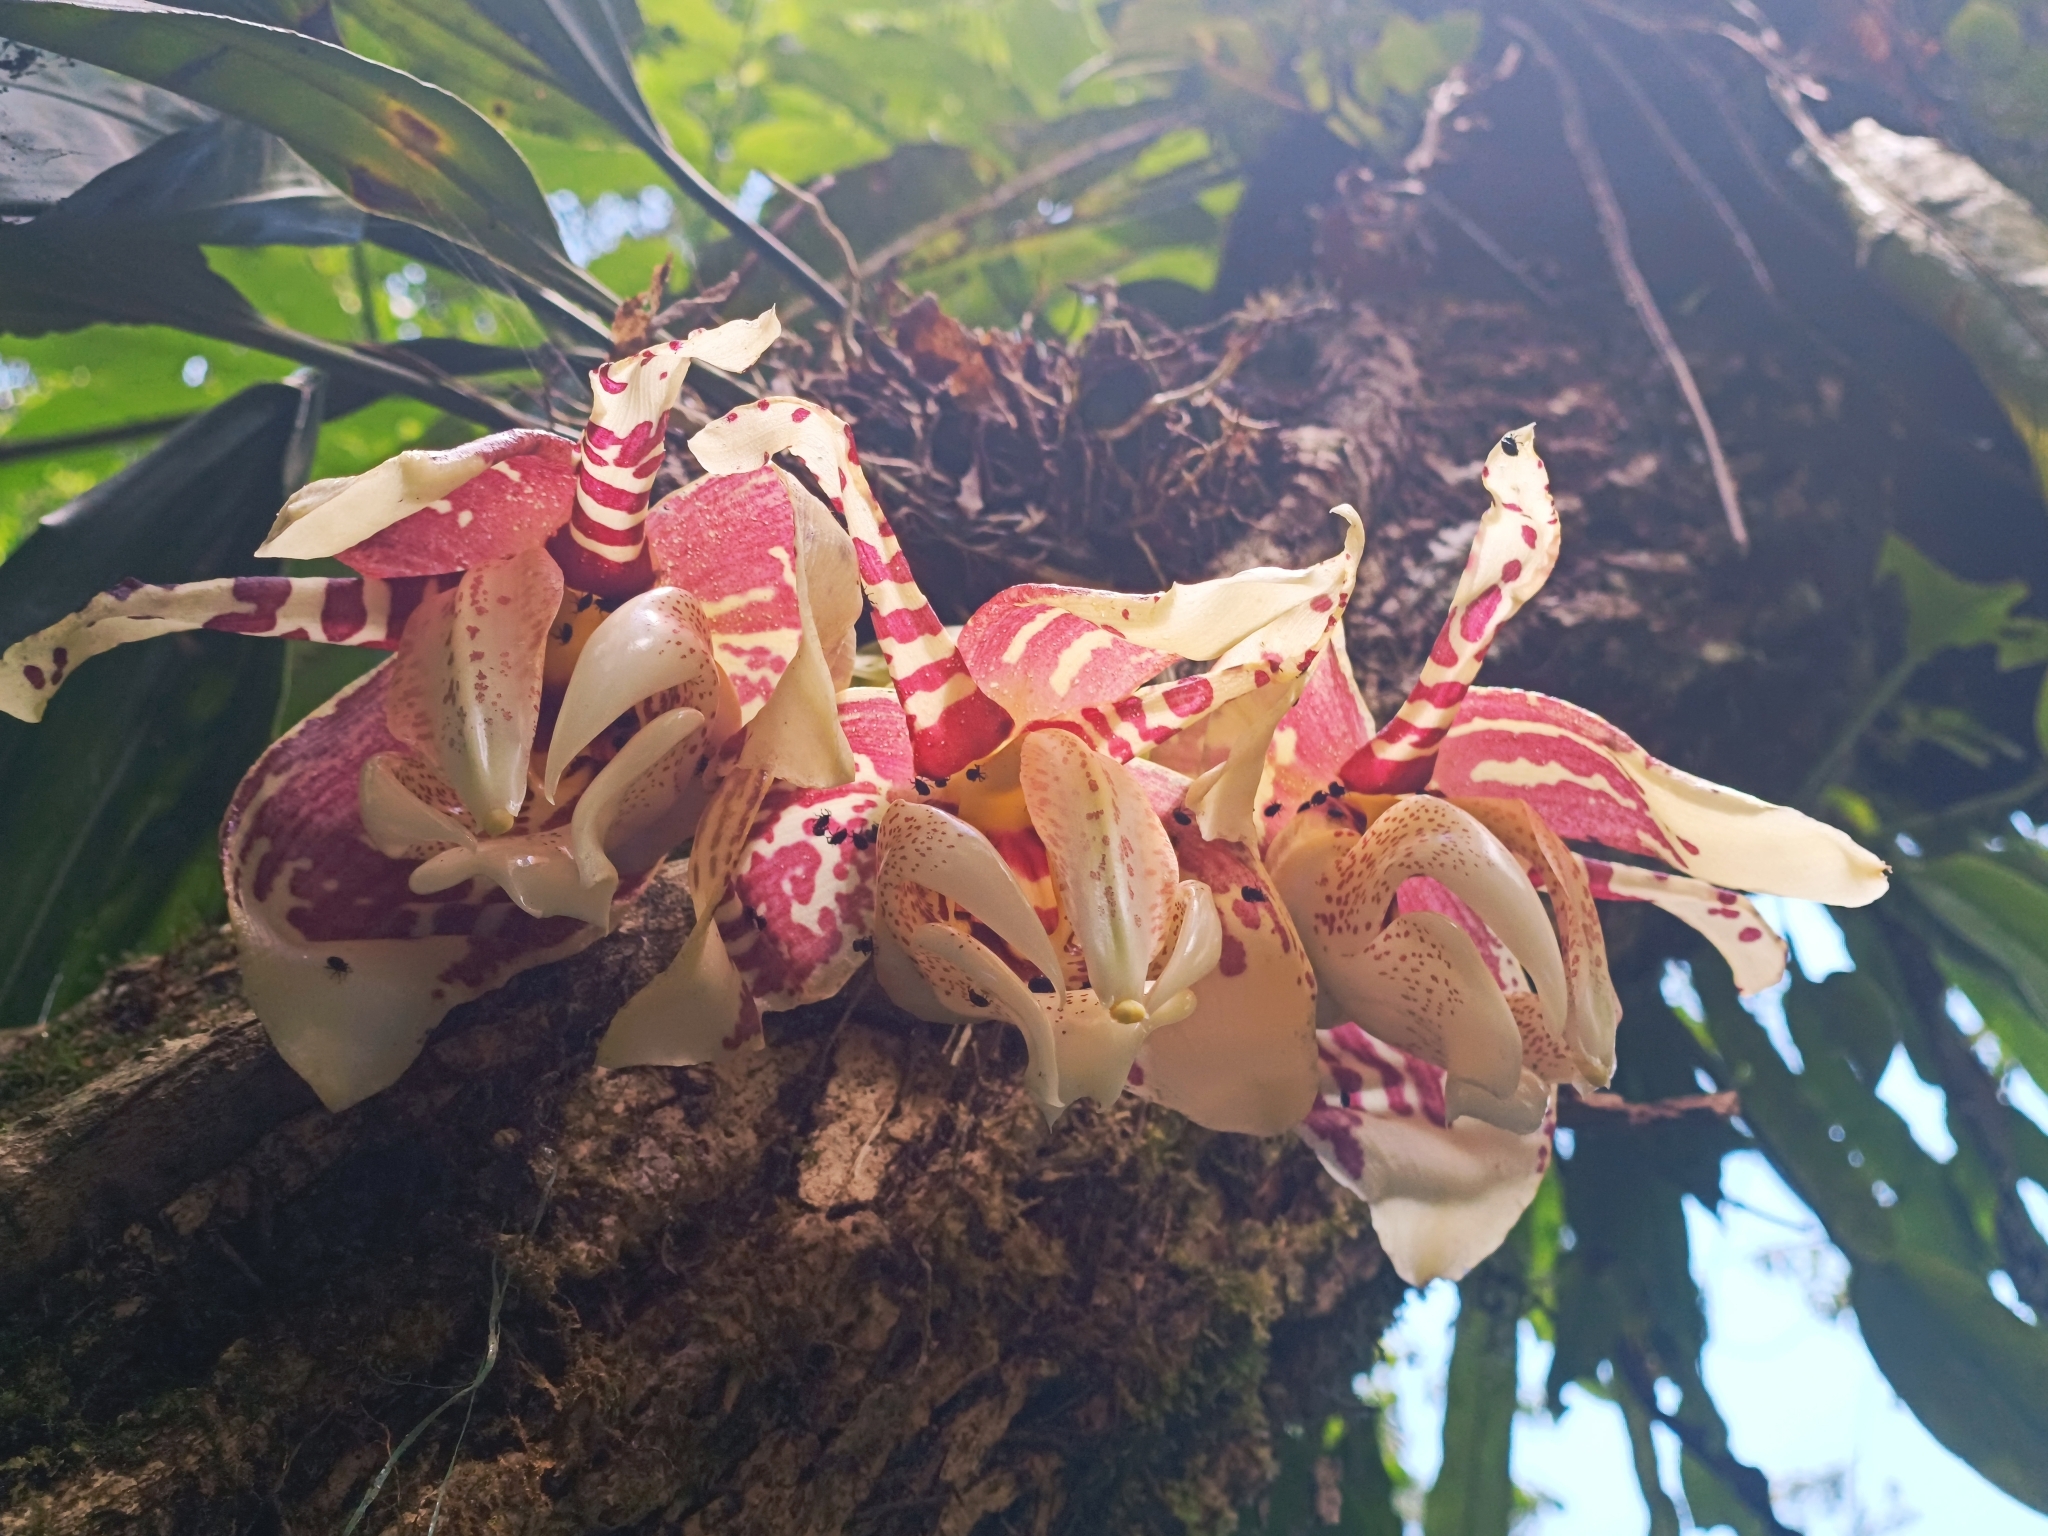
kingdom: Plantae
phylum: Tracheophyta
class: Liliopsida
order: Asparagales
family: Orchidaceae
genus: Stanhopea
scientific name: Stanhopea tigrina
